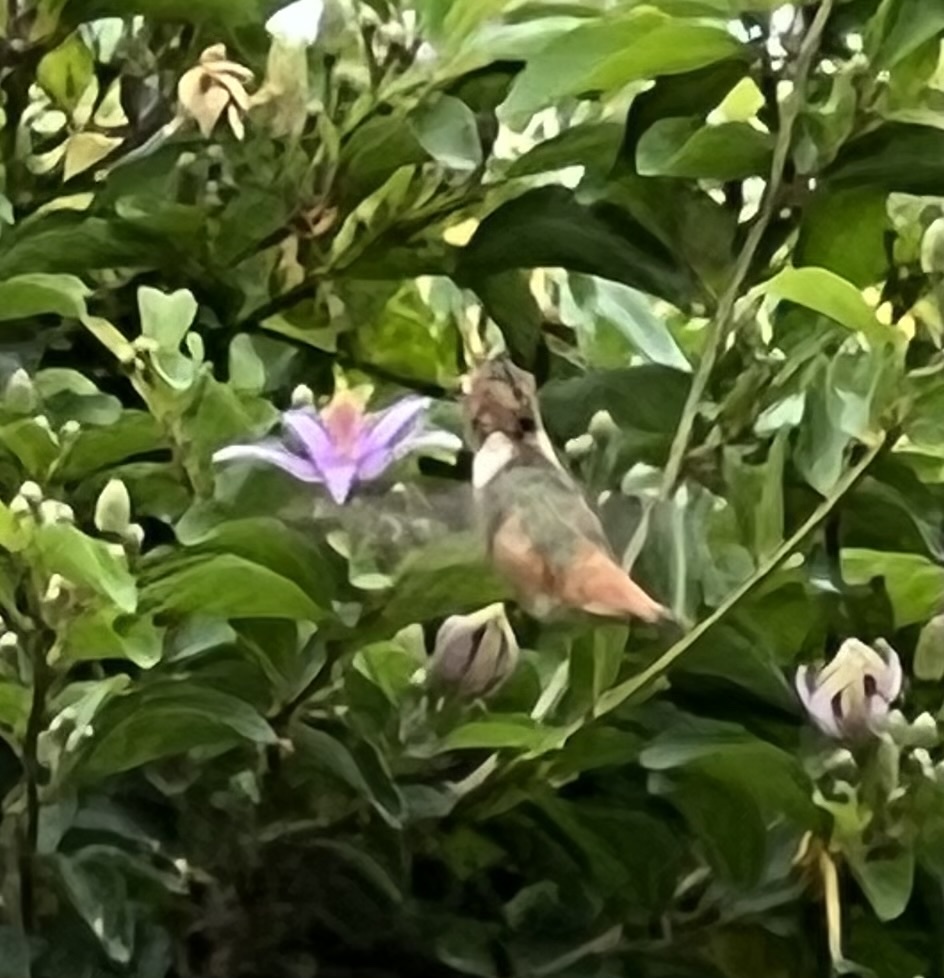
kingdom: Animalia
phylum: Chordata
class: Aves
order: Apodiformes
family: Trochilidae
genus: Selasphorus
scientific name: Selasphorus
